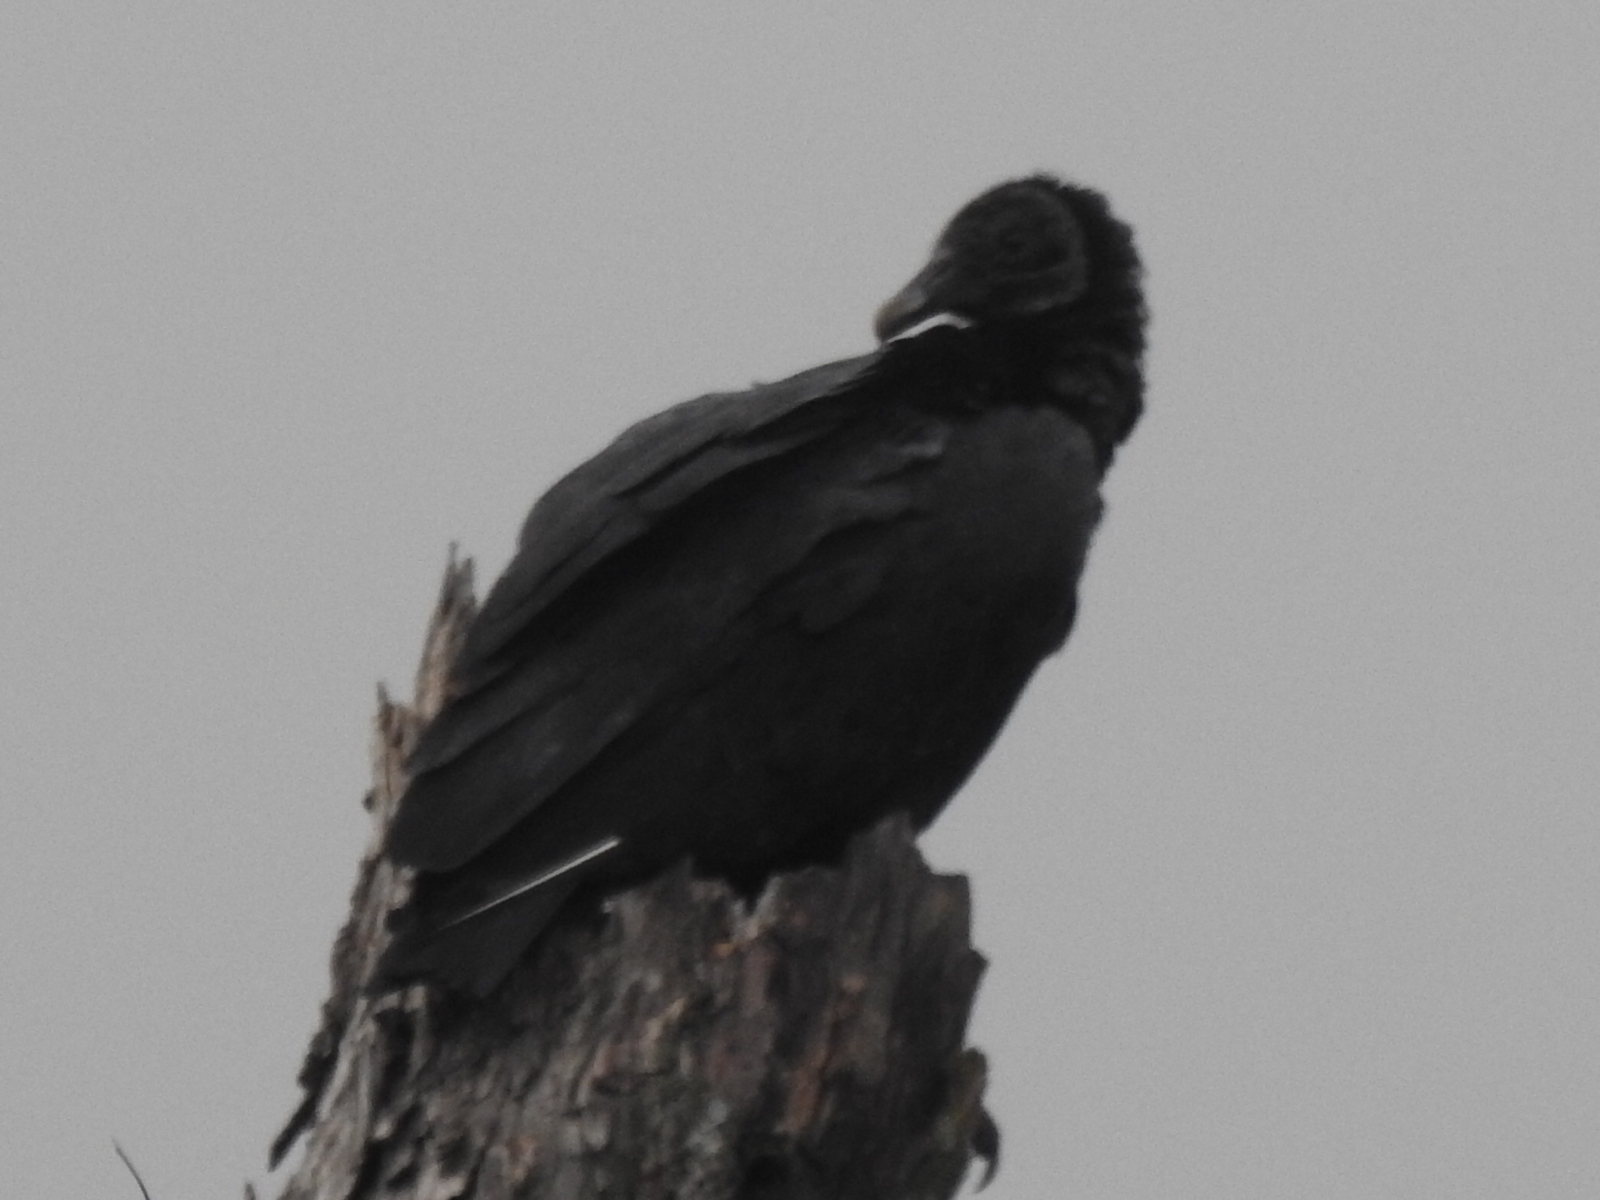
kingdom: Animalia
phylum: Chordata
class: Aves
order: Accipitriformes
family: Cathartidae
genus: Coragyps
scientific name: Coragyps atratus
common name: Black vulture
